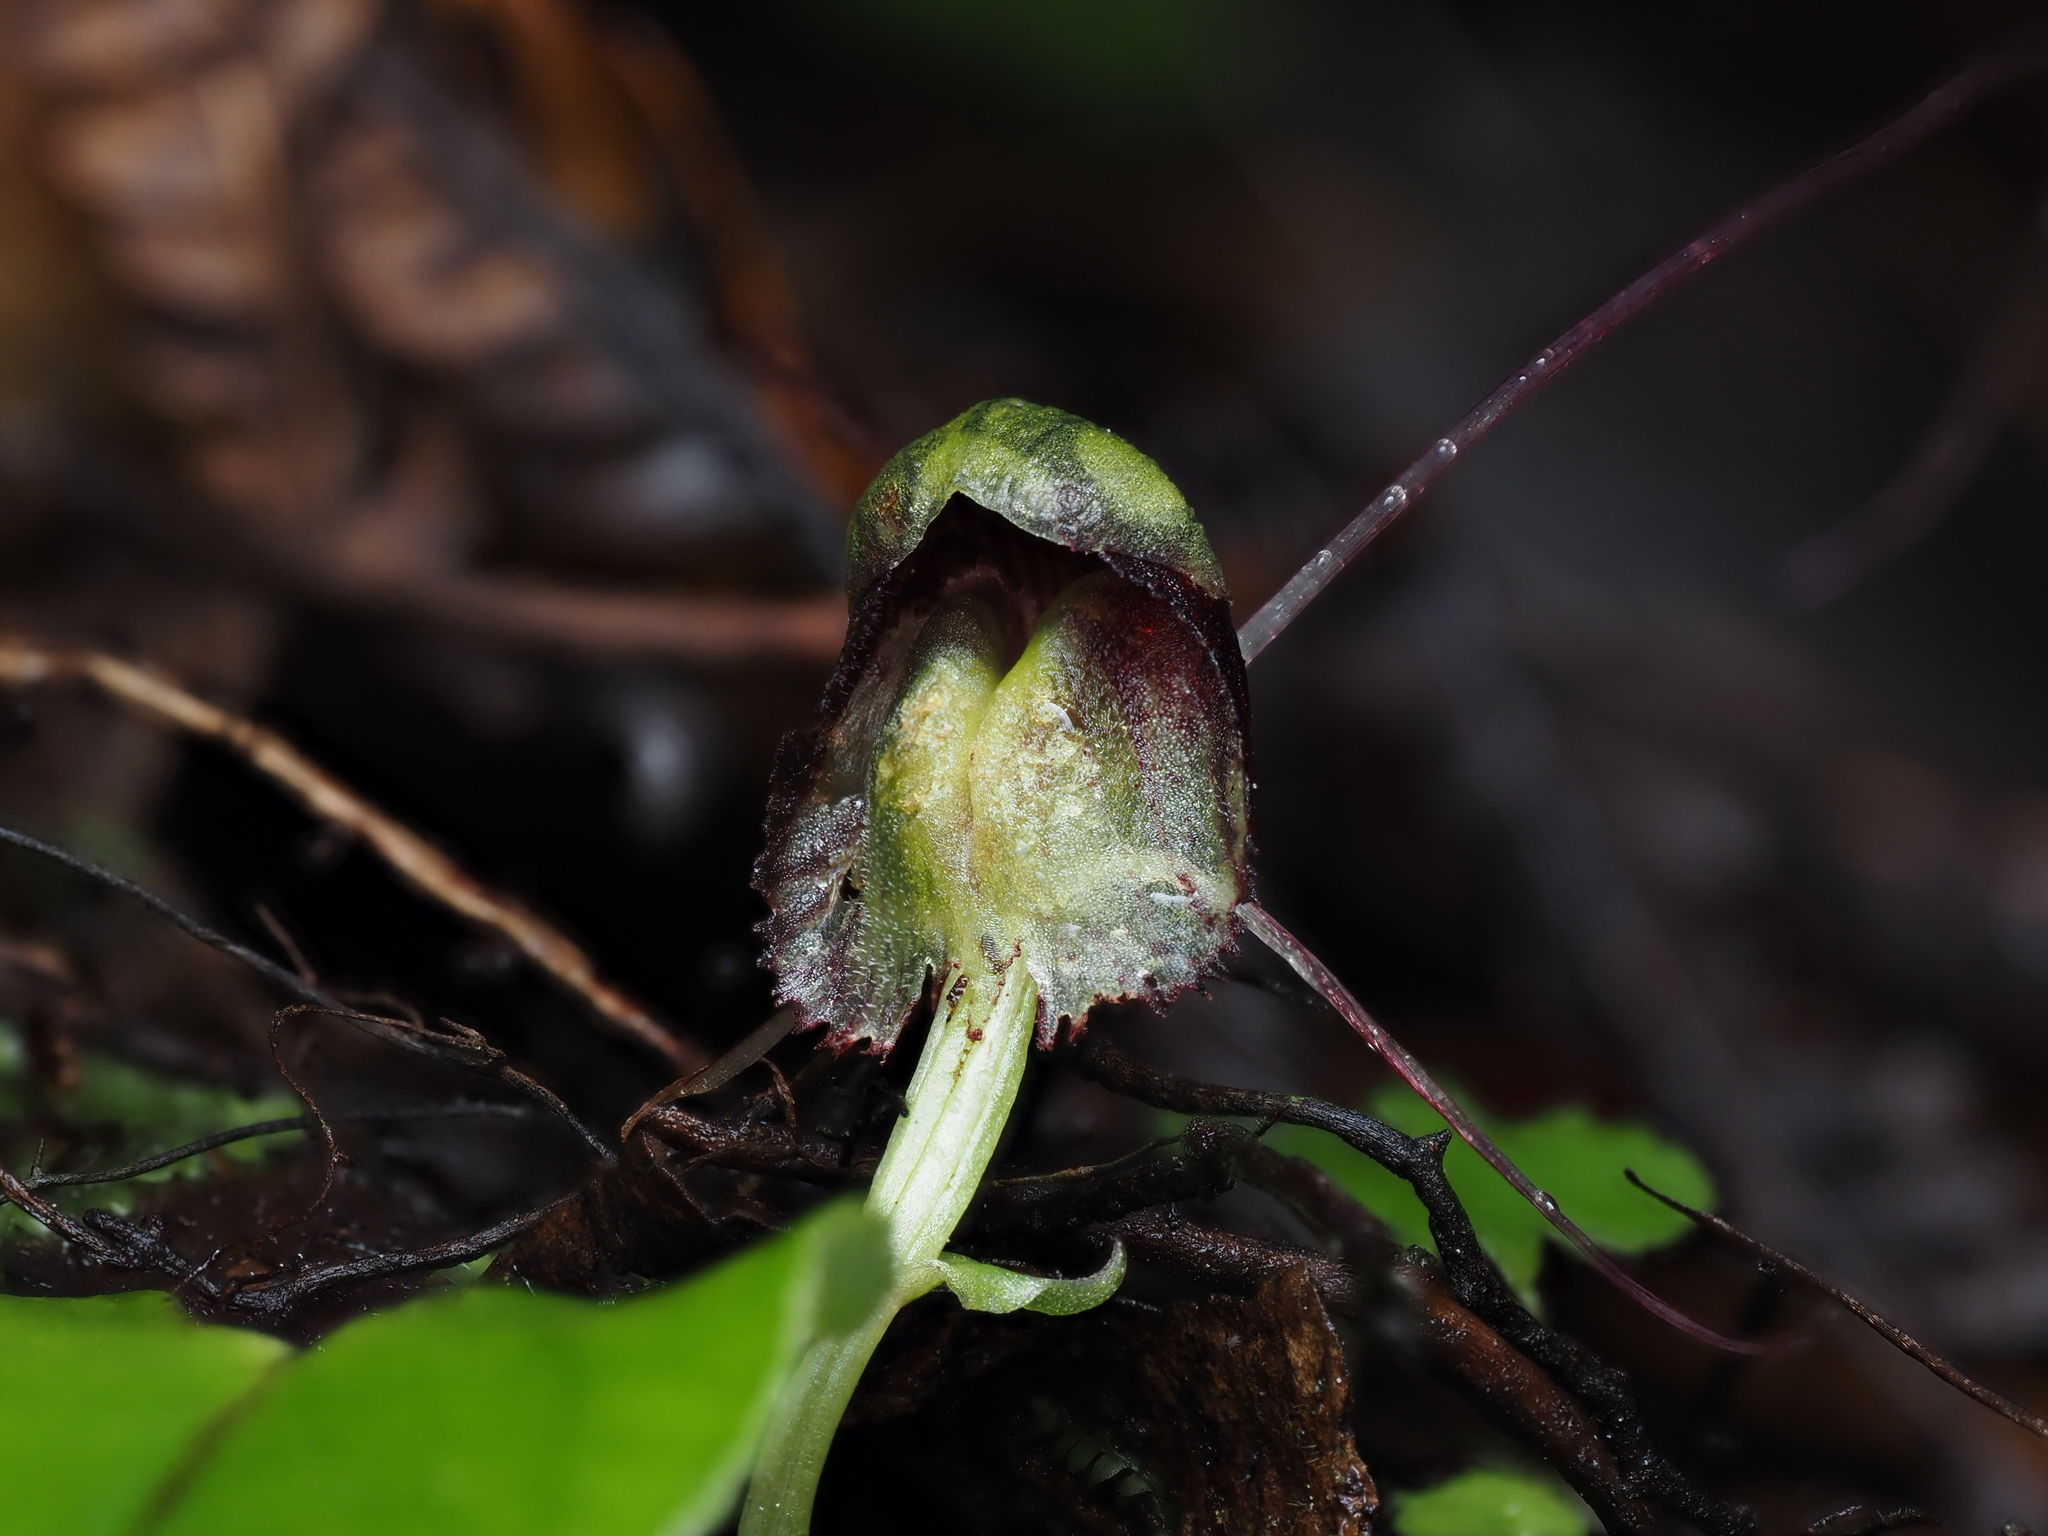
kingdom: Plantae
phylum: Tracheophyta
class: Liliopsida
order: Asparagales
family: Orchidaceae
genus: Corybas
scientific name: Corybas vitreus
